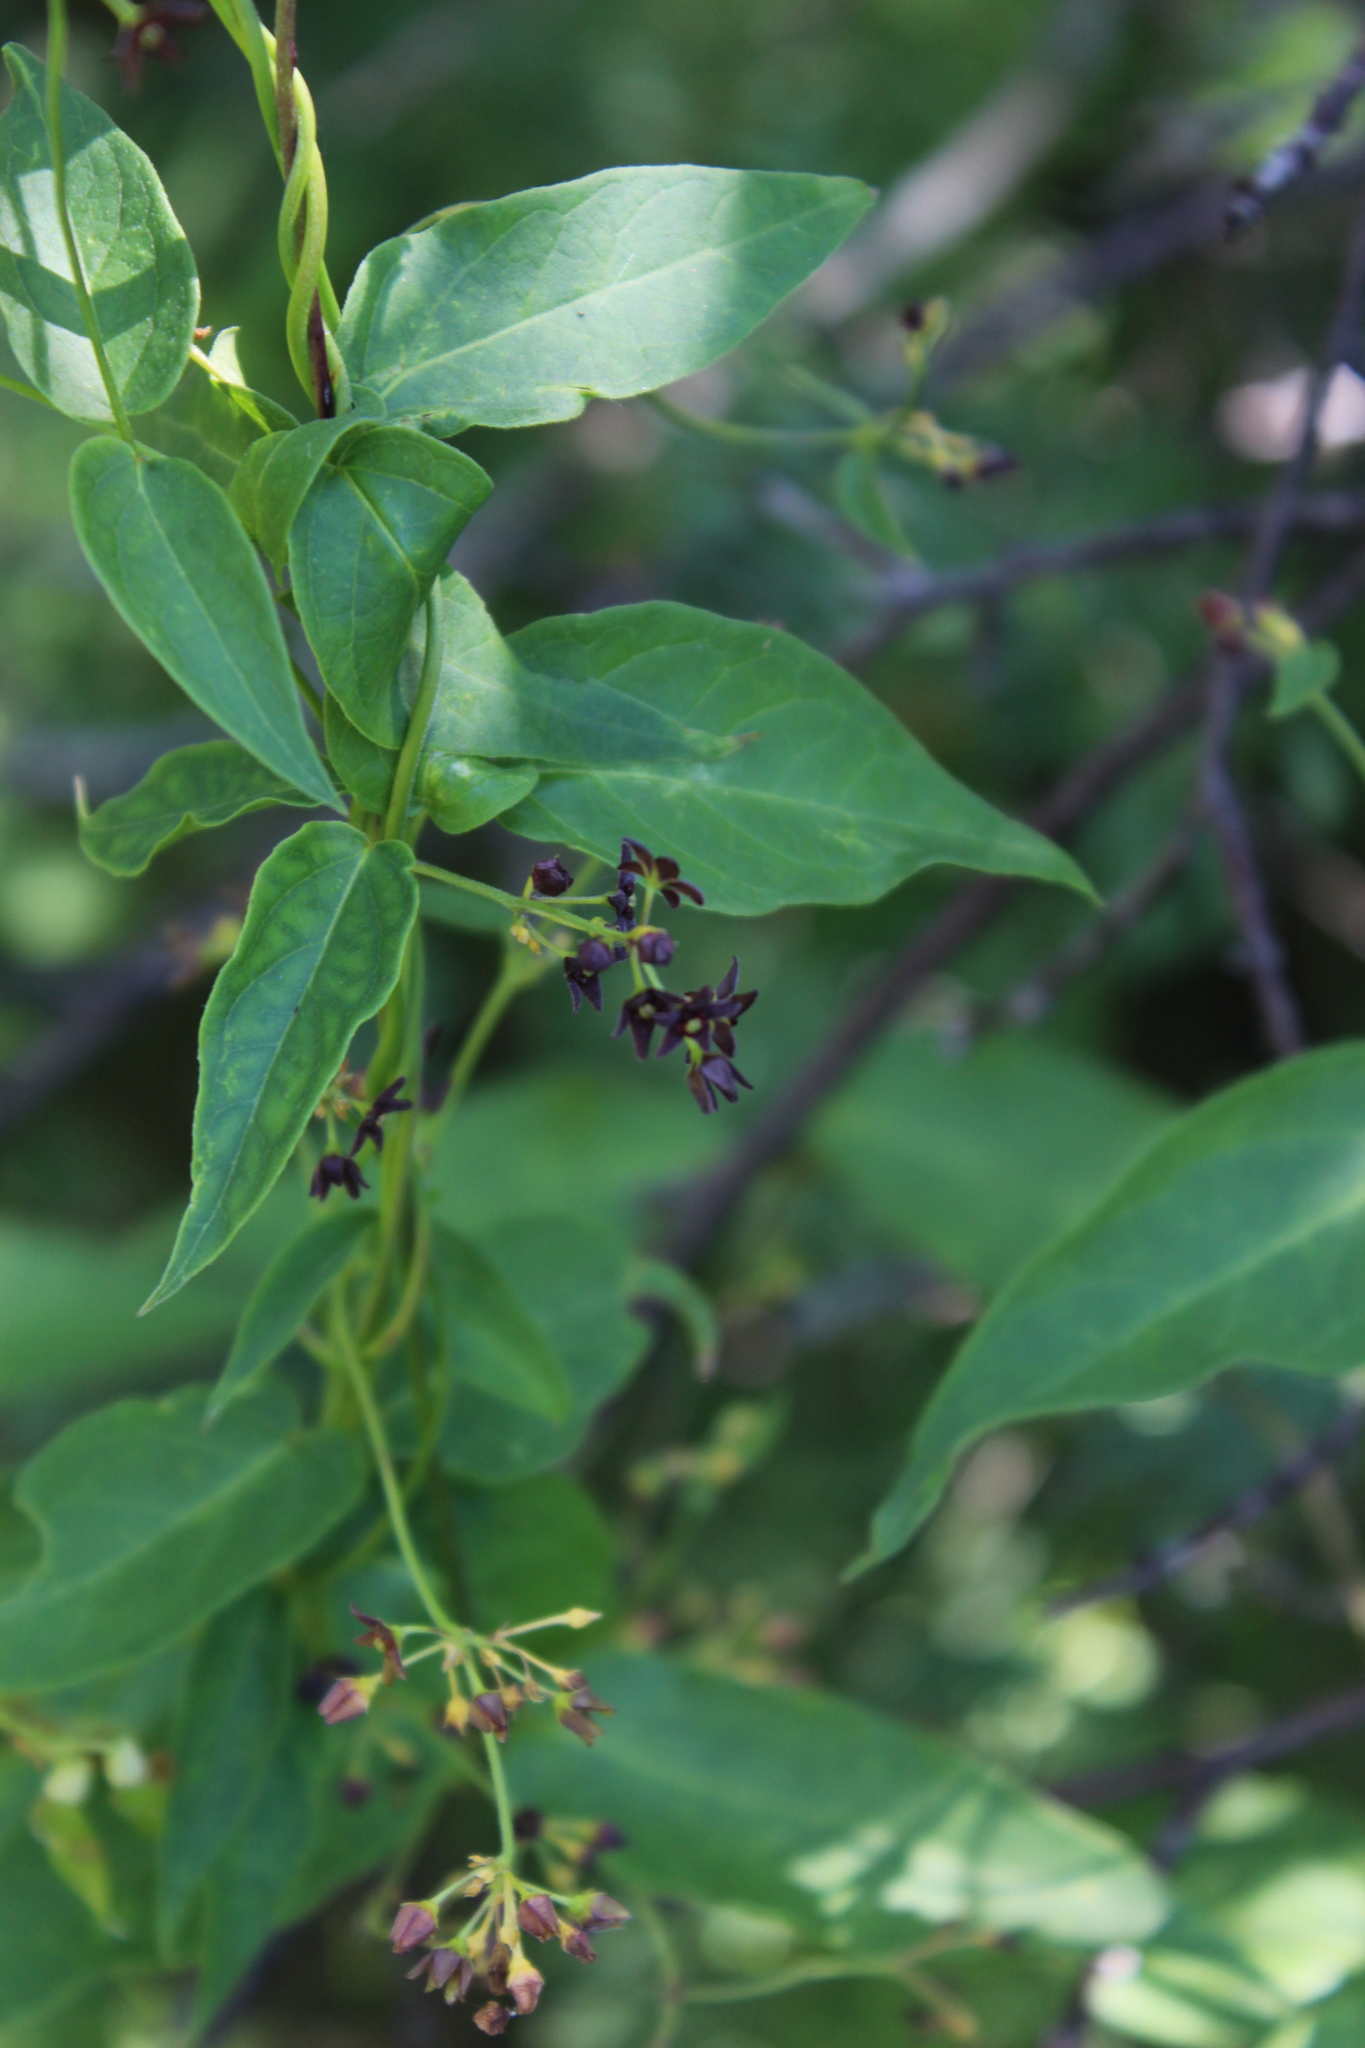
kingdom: Plantae
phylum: Tracheophyta
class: Magnoliopsida
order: Gentianales
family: Apocynaceae
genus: Vincetoxicum
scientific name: Vincetoxicum scandens
